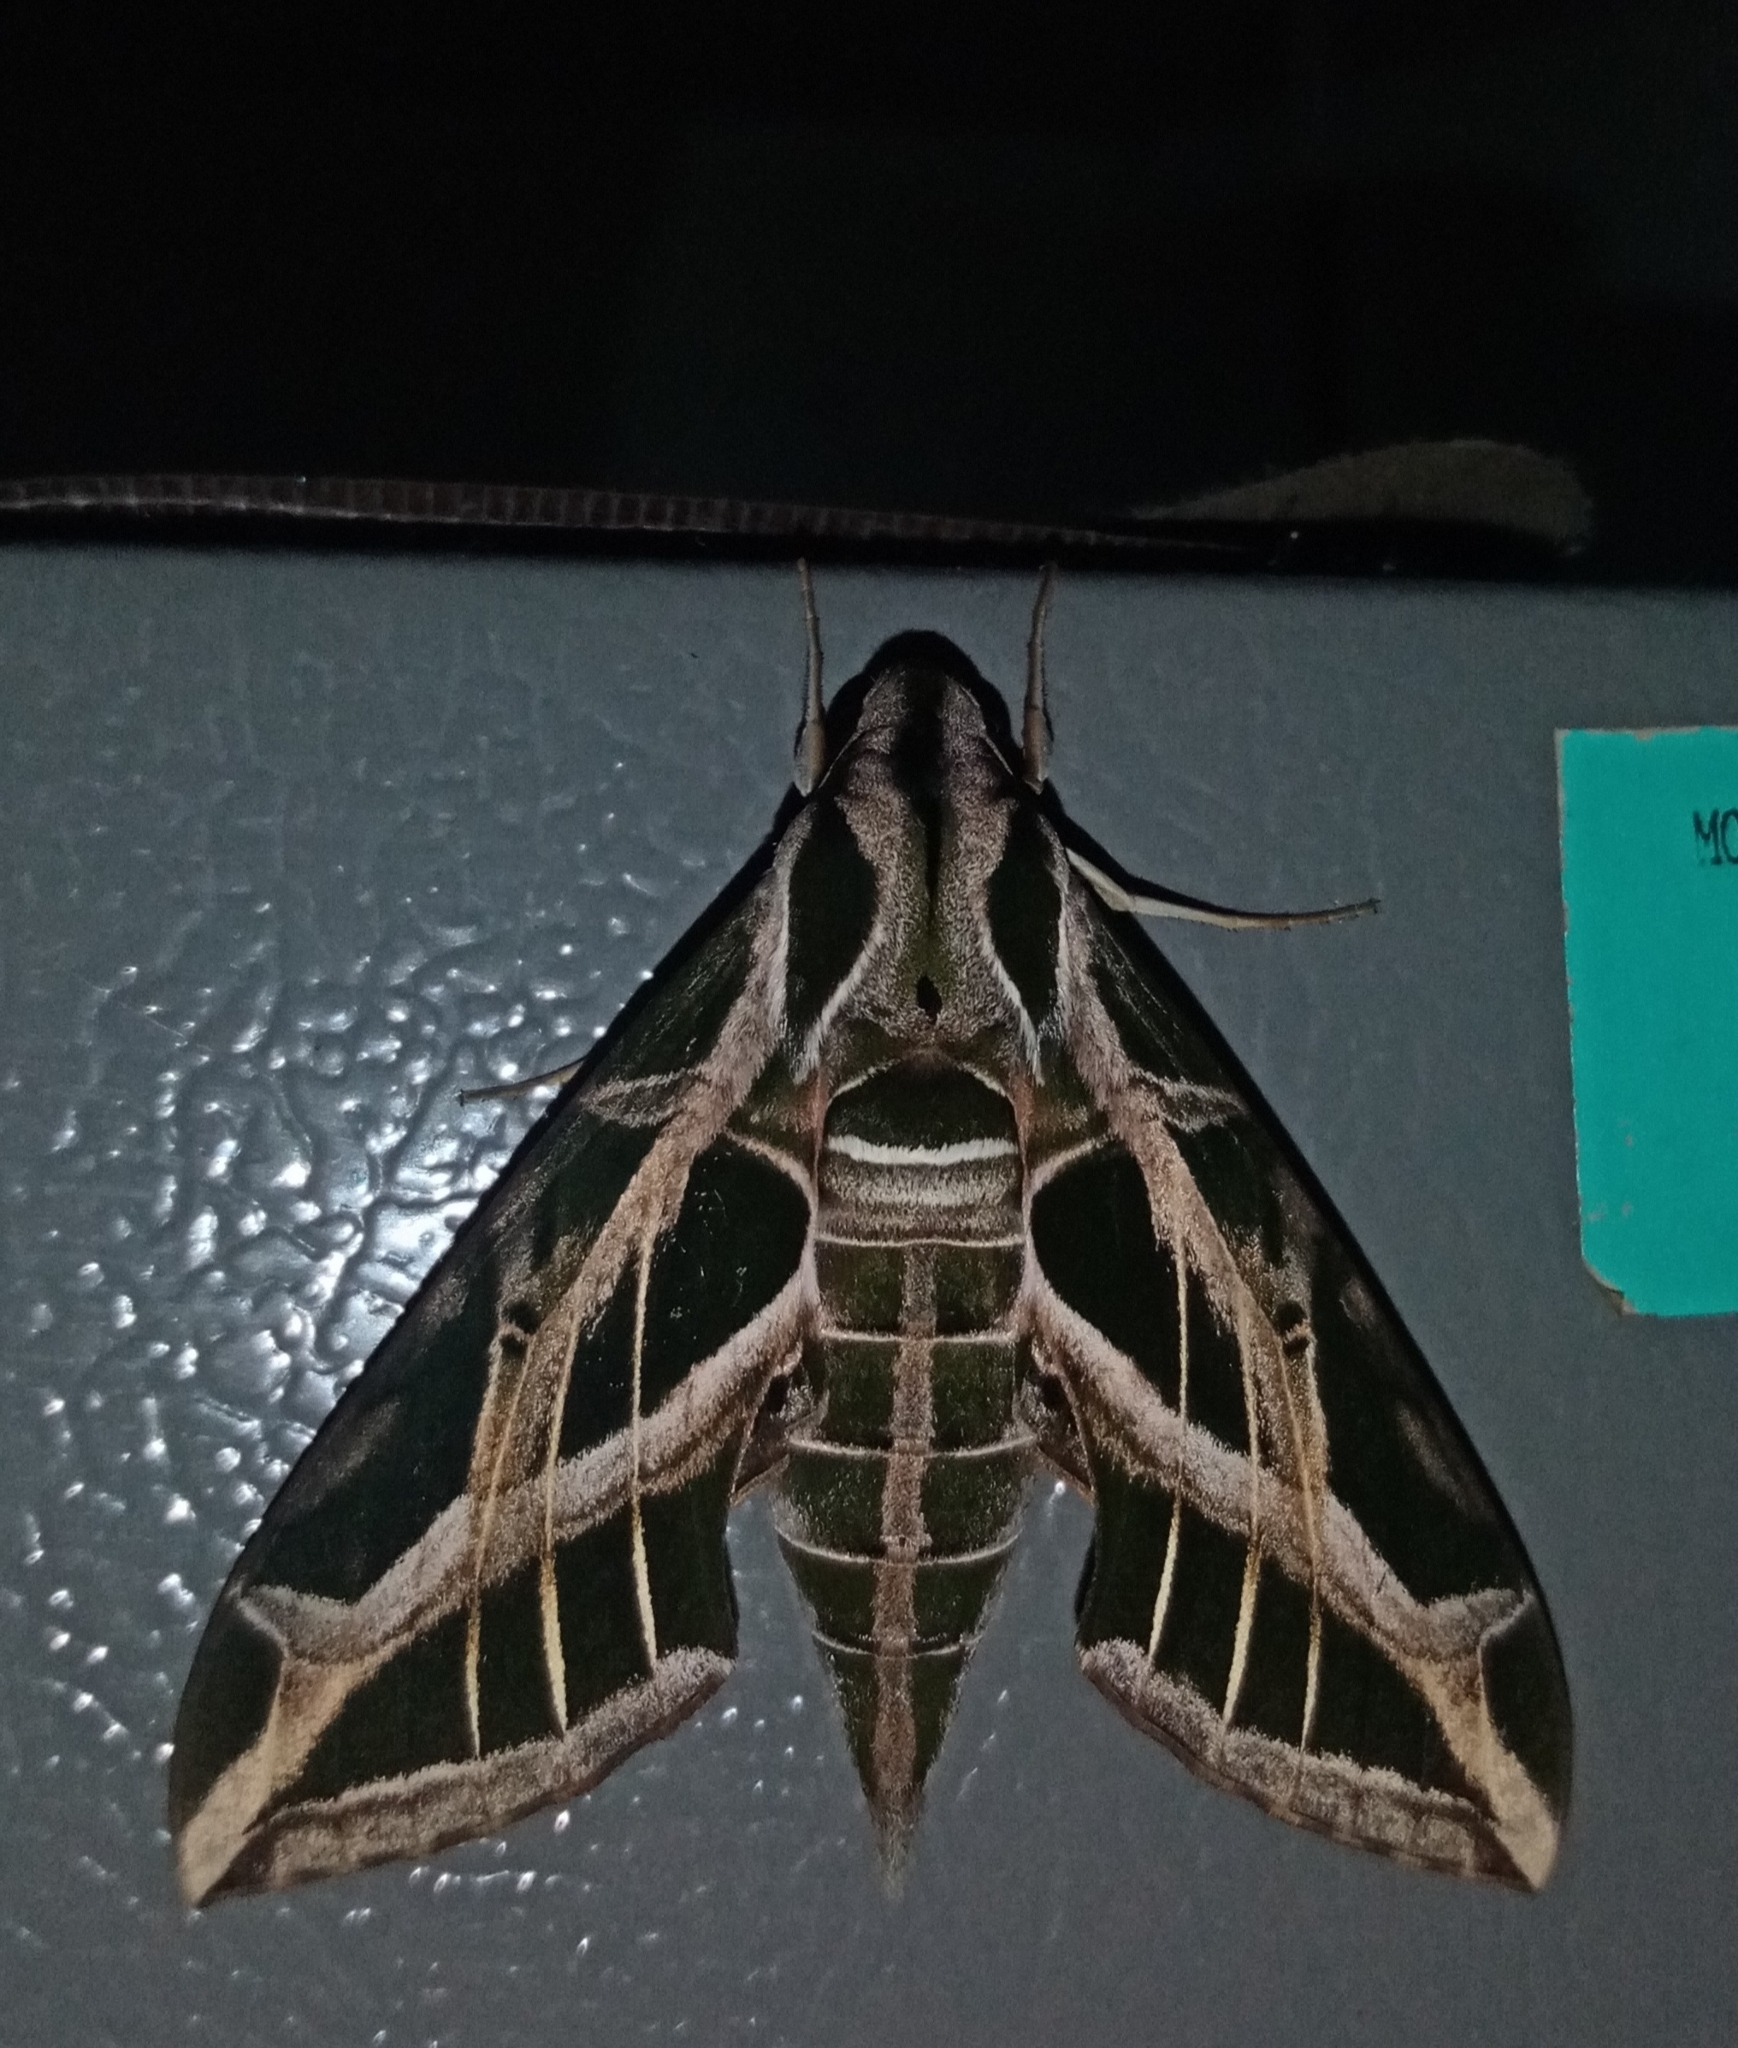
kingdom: Animalia
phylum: Arthropoda
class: Insecta
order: Lepidoptera
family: Sphingidae
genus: Eumorpha
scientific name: Eumorpha vitis
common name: Vine sphinx
